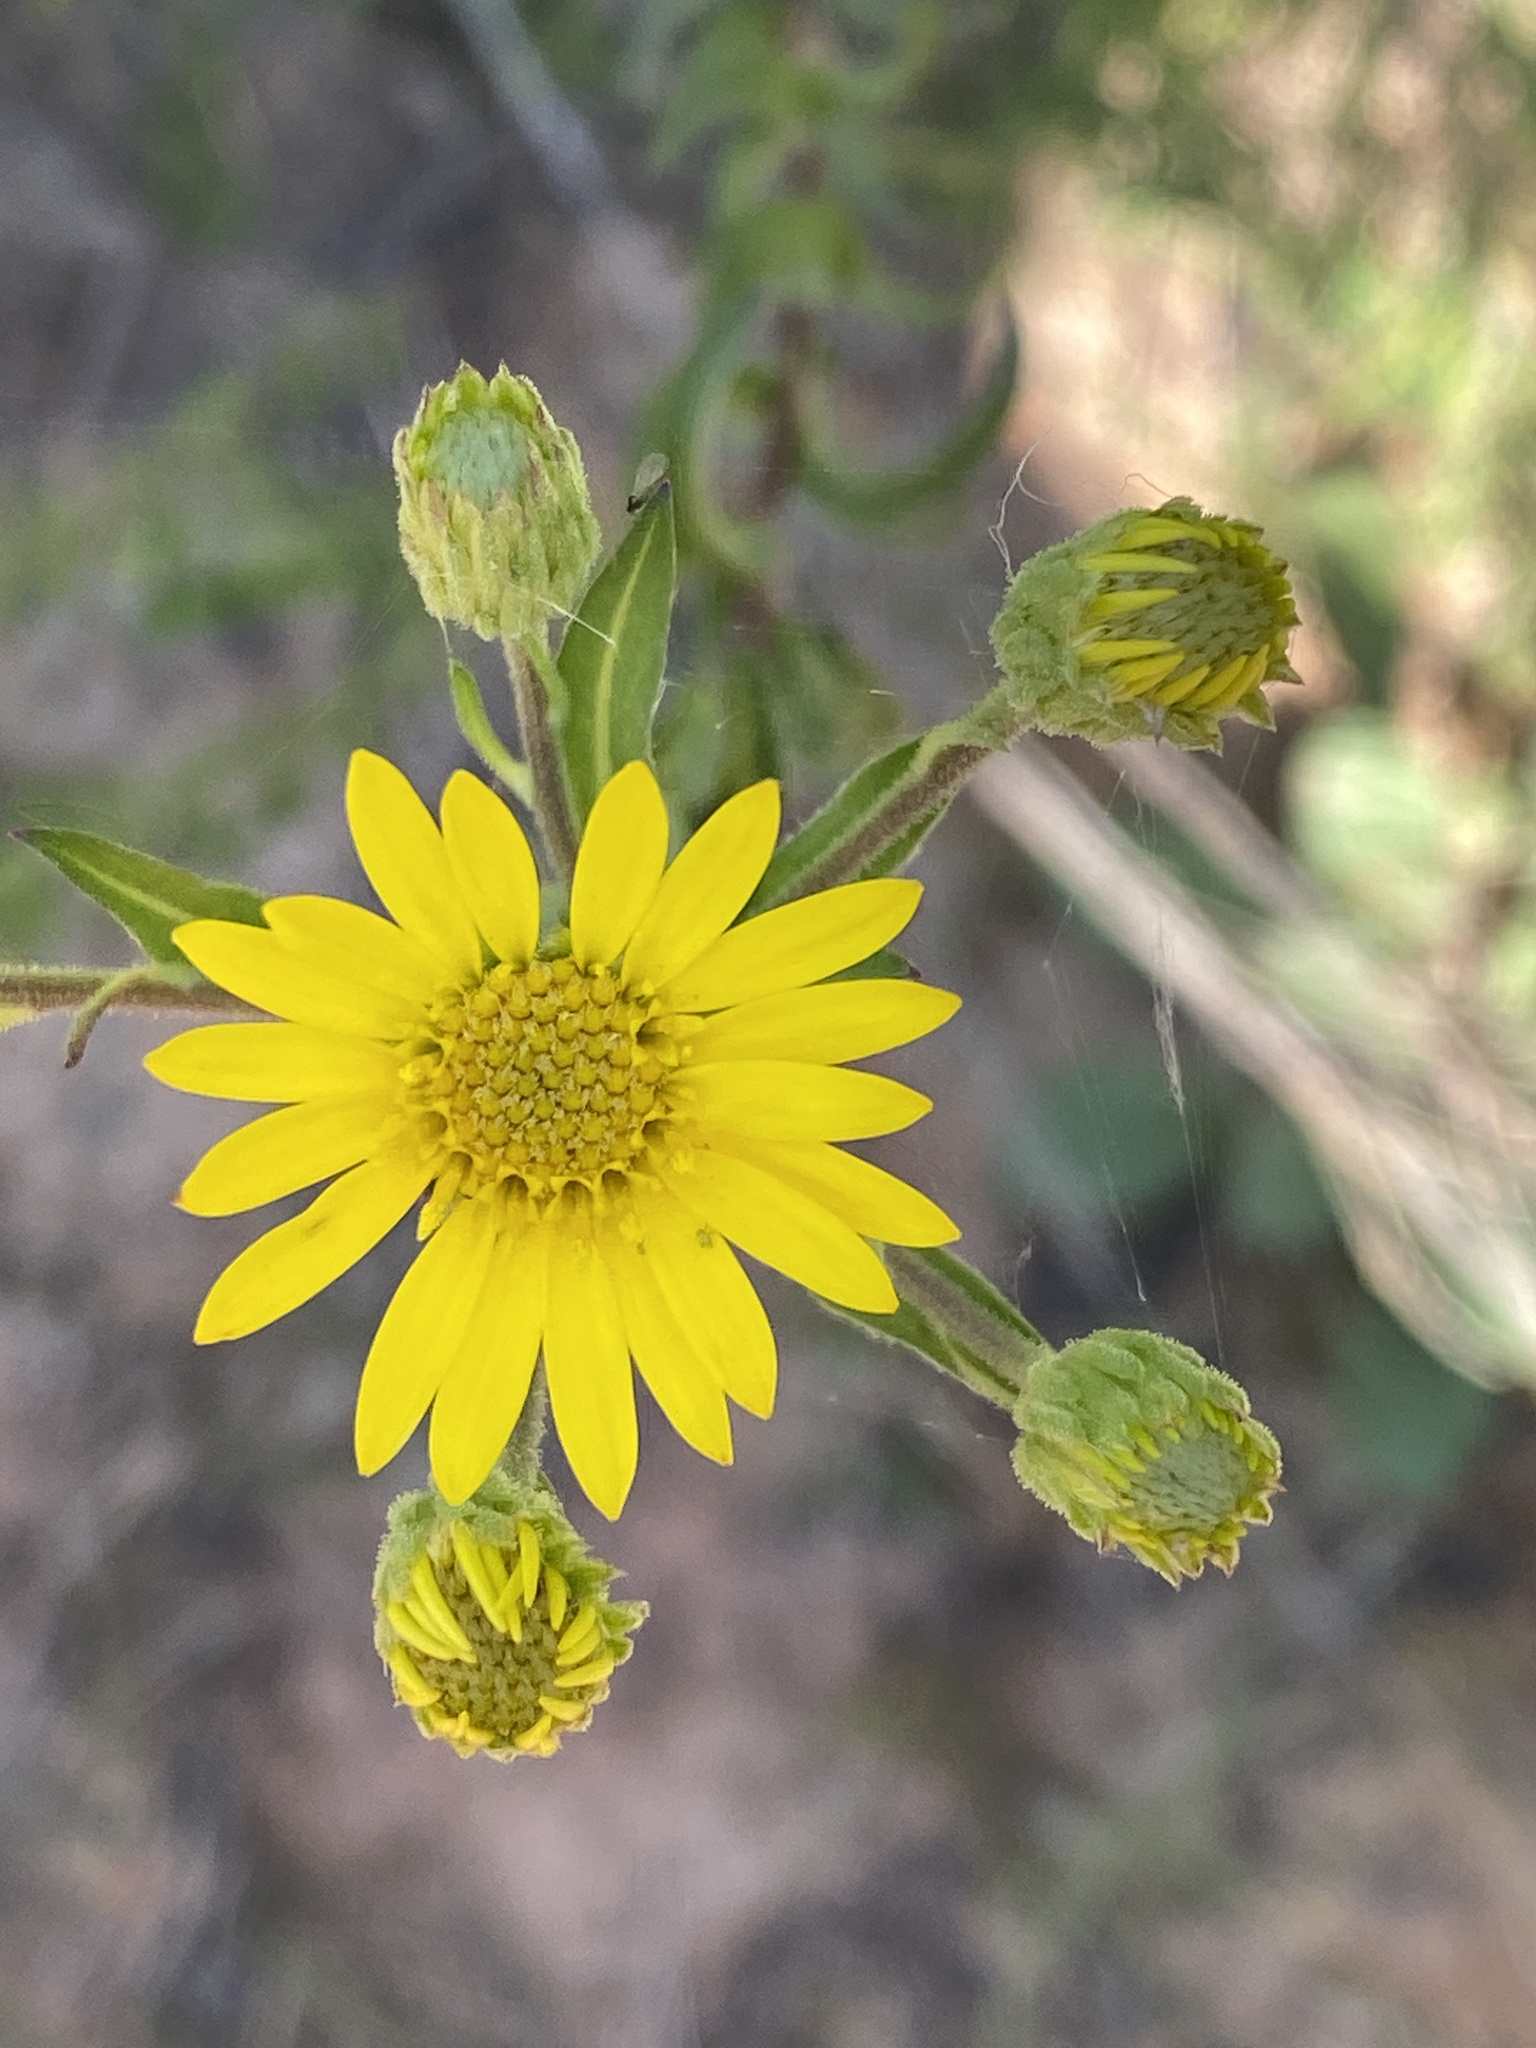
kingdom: Plantae
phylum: Tracheophyta
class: Magnoliopsida
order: Asterales
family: Asteraceae
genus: Chrysopsis
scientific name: Chrysopsis mariana
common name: Maryland golden-aster
